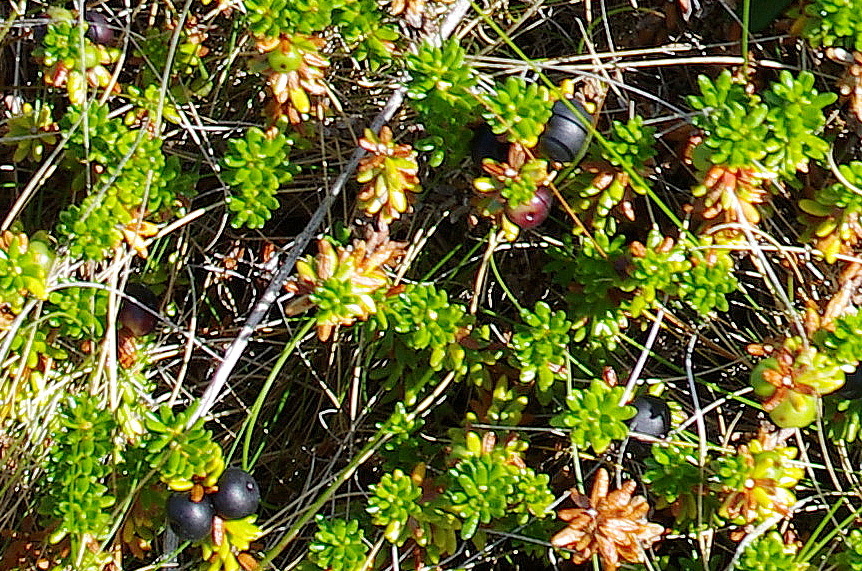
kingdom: Plantae
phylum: Tracheophyta
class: Magnoliopsida
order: Ericales
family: Ericaceae
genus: Empetrum
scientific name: Empetrum nigrum
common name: Black crowberry
